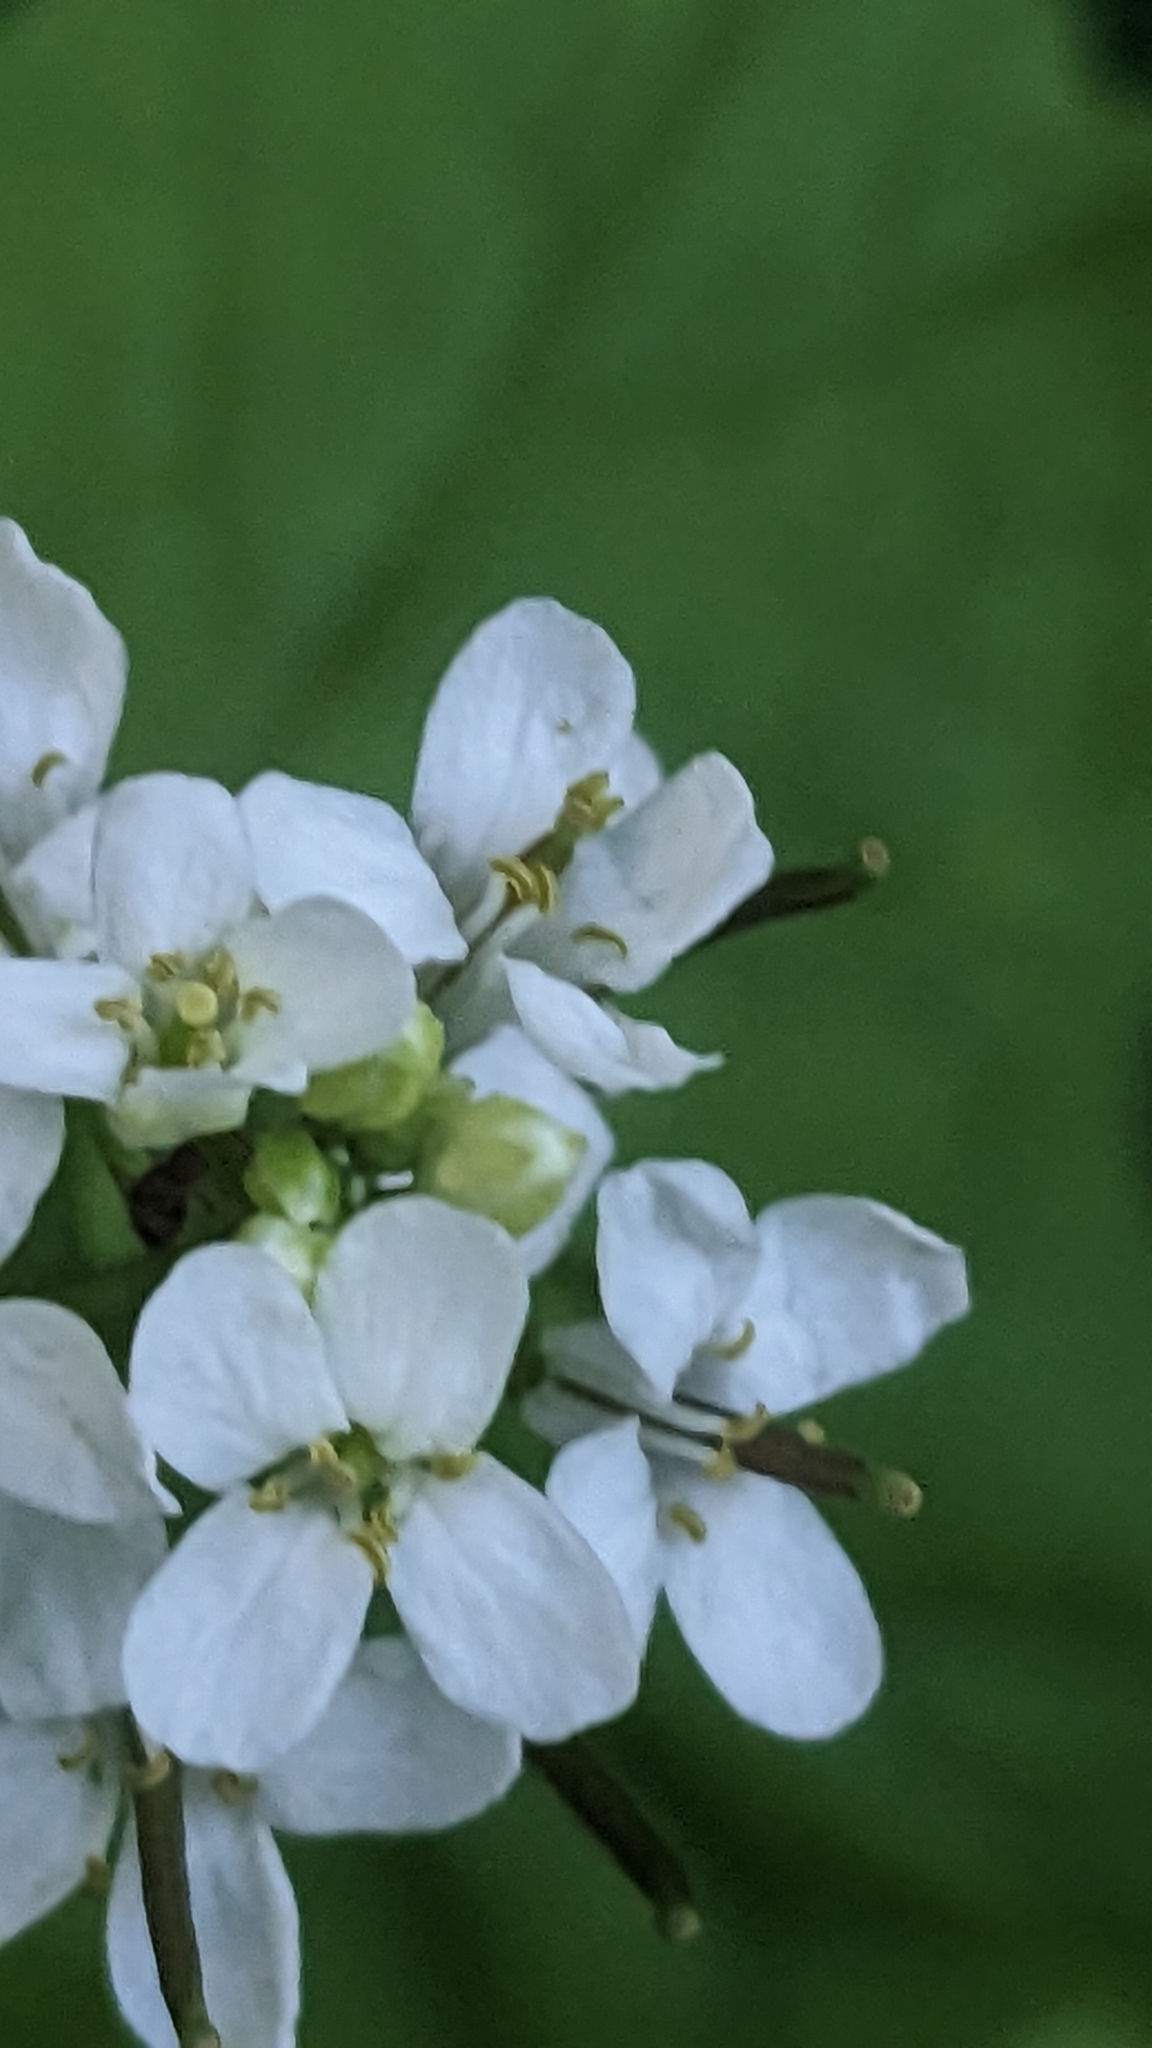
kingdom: Plantae
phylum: Tracheophyta
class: Magnoliopsida
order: Brassicales
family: Brassicaceae
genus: Alliaria
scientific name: Alliaria petiolata
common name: Garlic mustard
